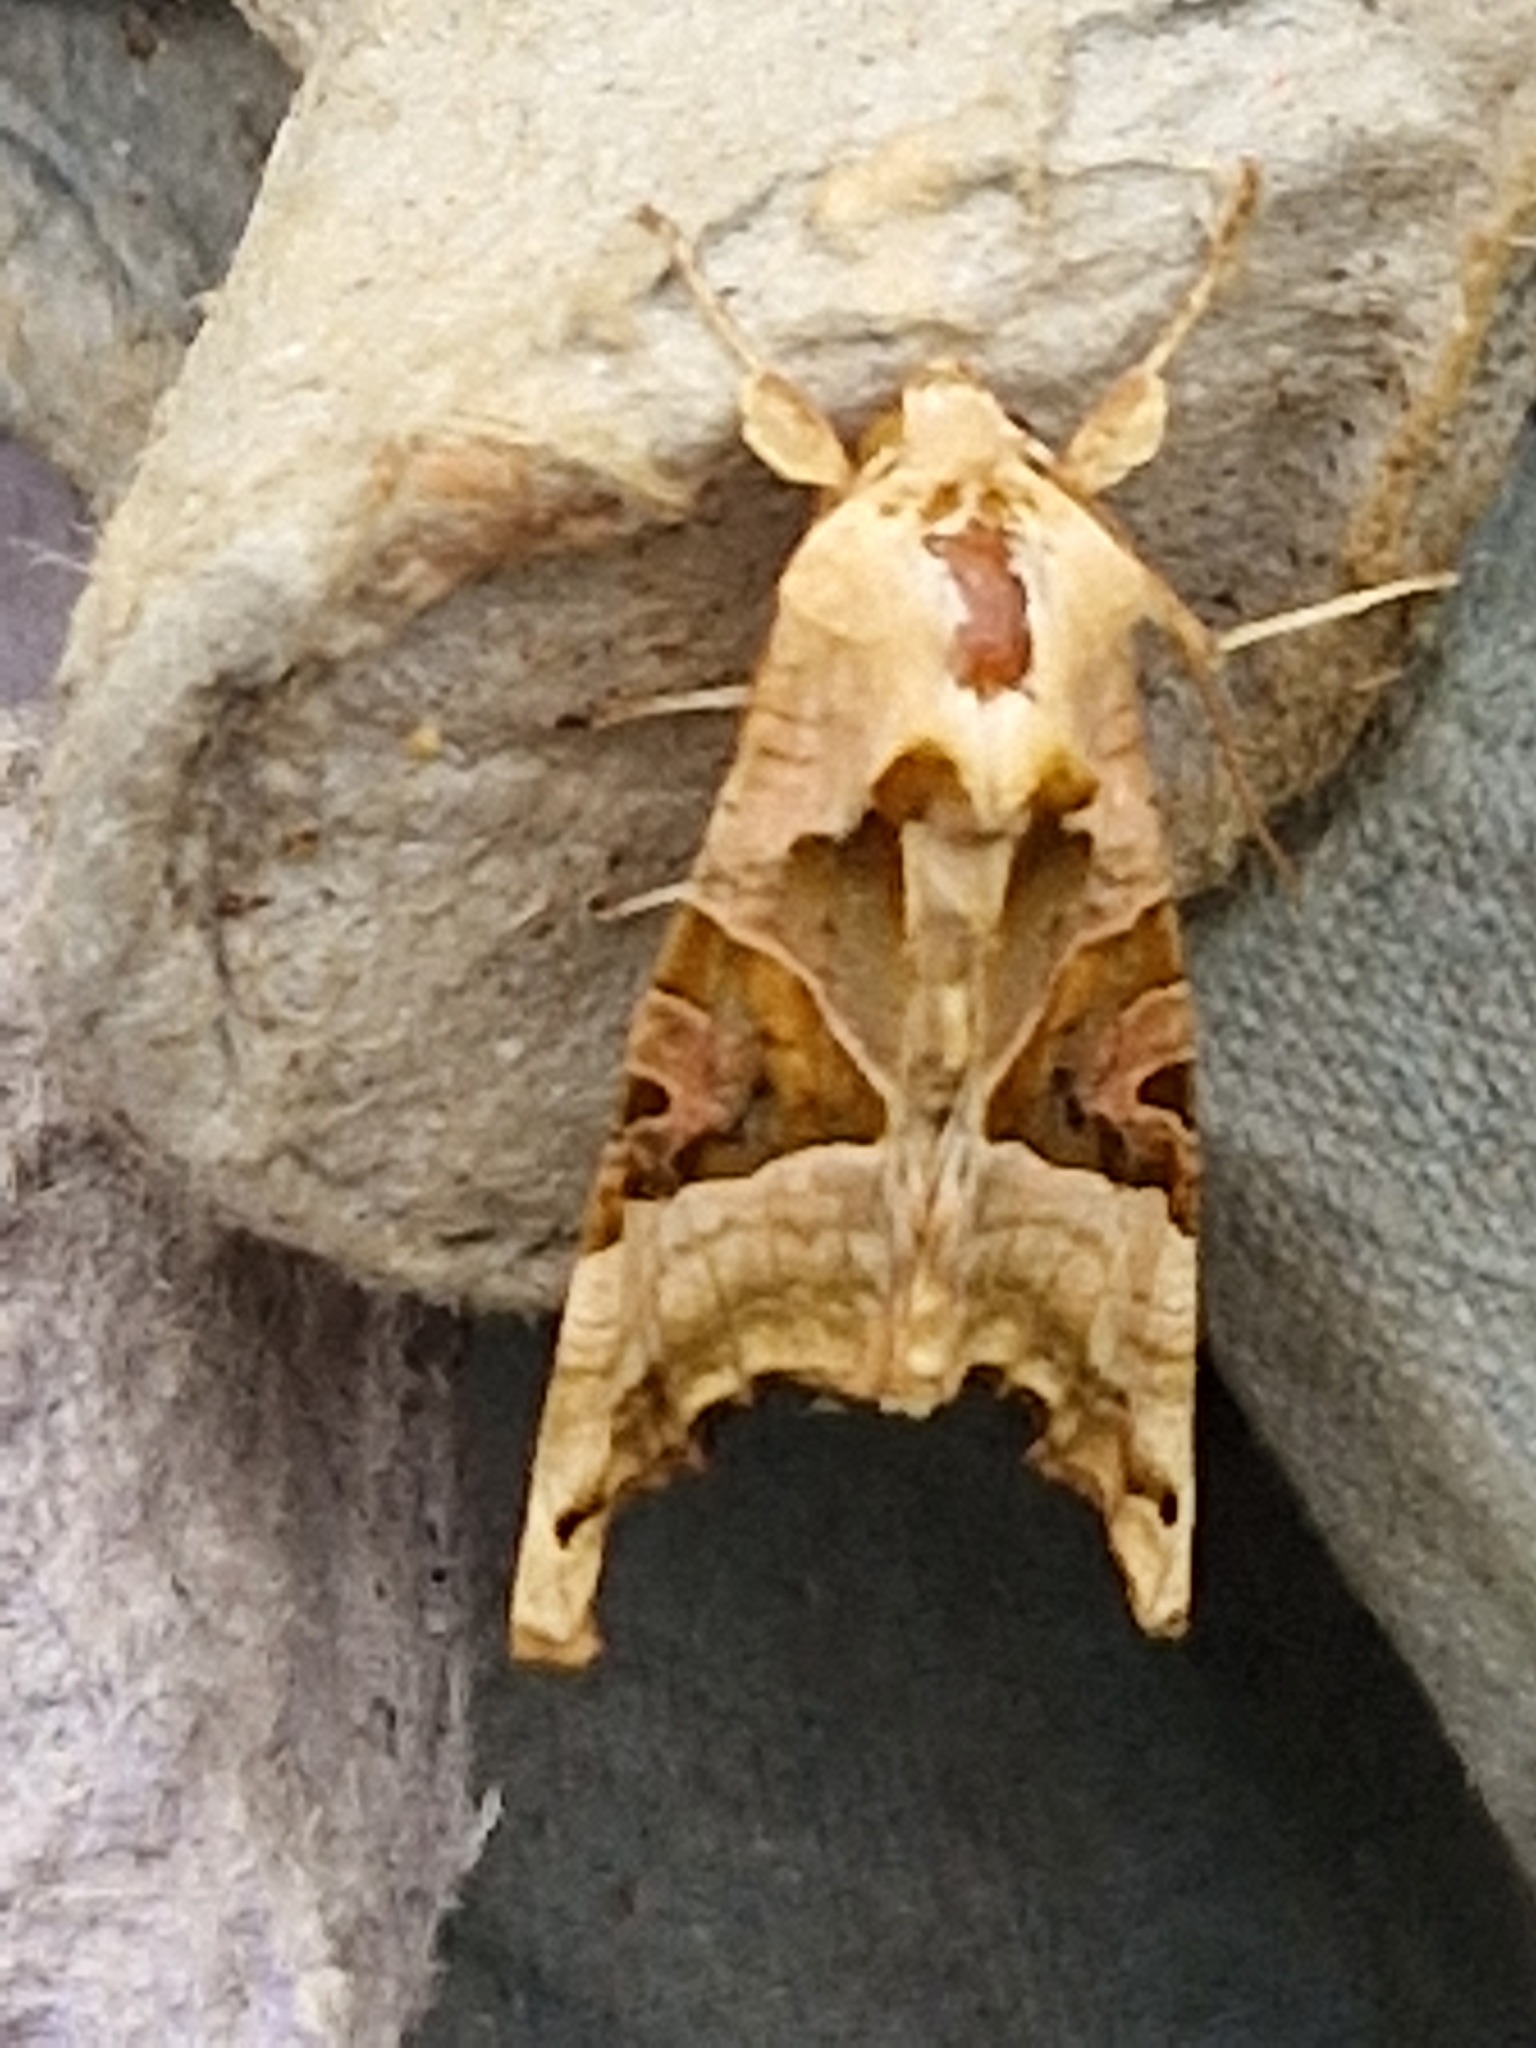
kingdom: Animalia
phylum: Arthropoda
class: Insecta
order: Lepidoptera
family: Noctuidae
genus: Phlogophora
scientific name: Phlogophora meticulosa
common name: Angle shades
